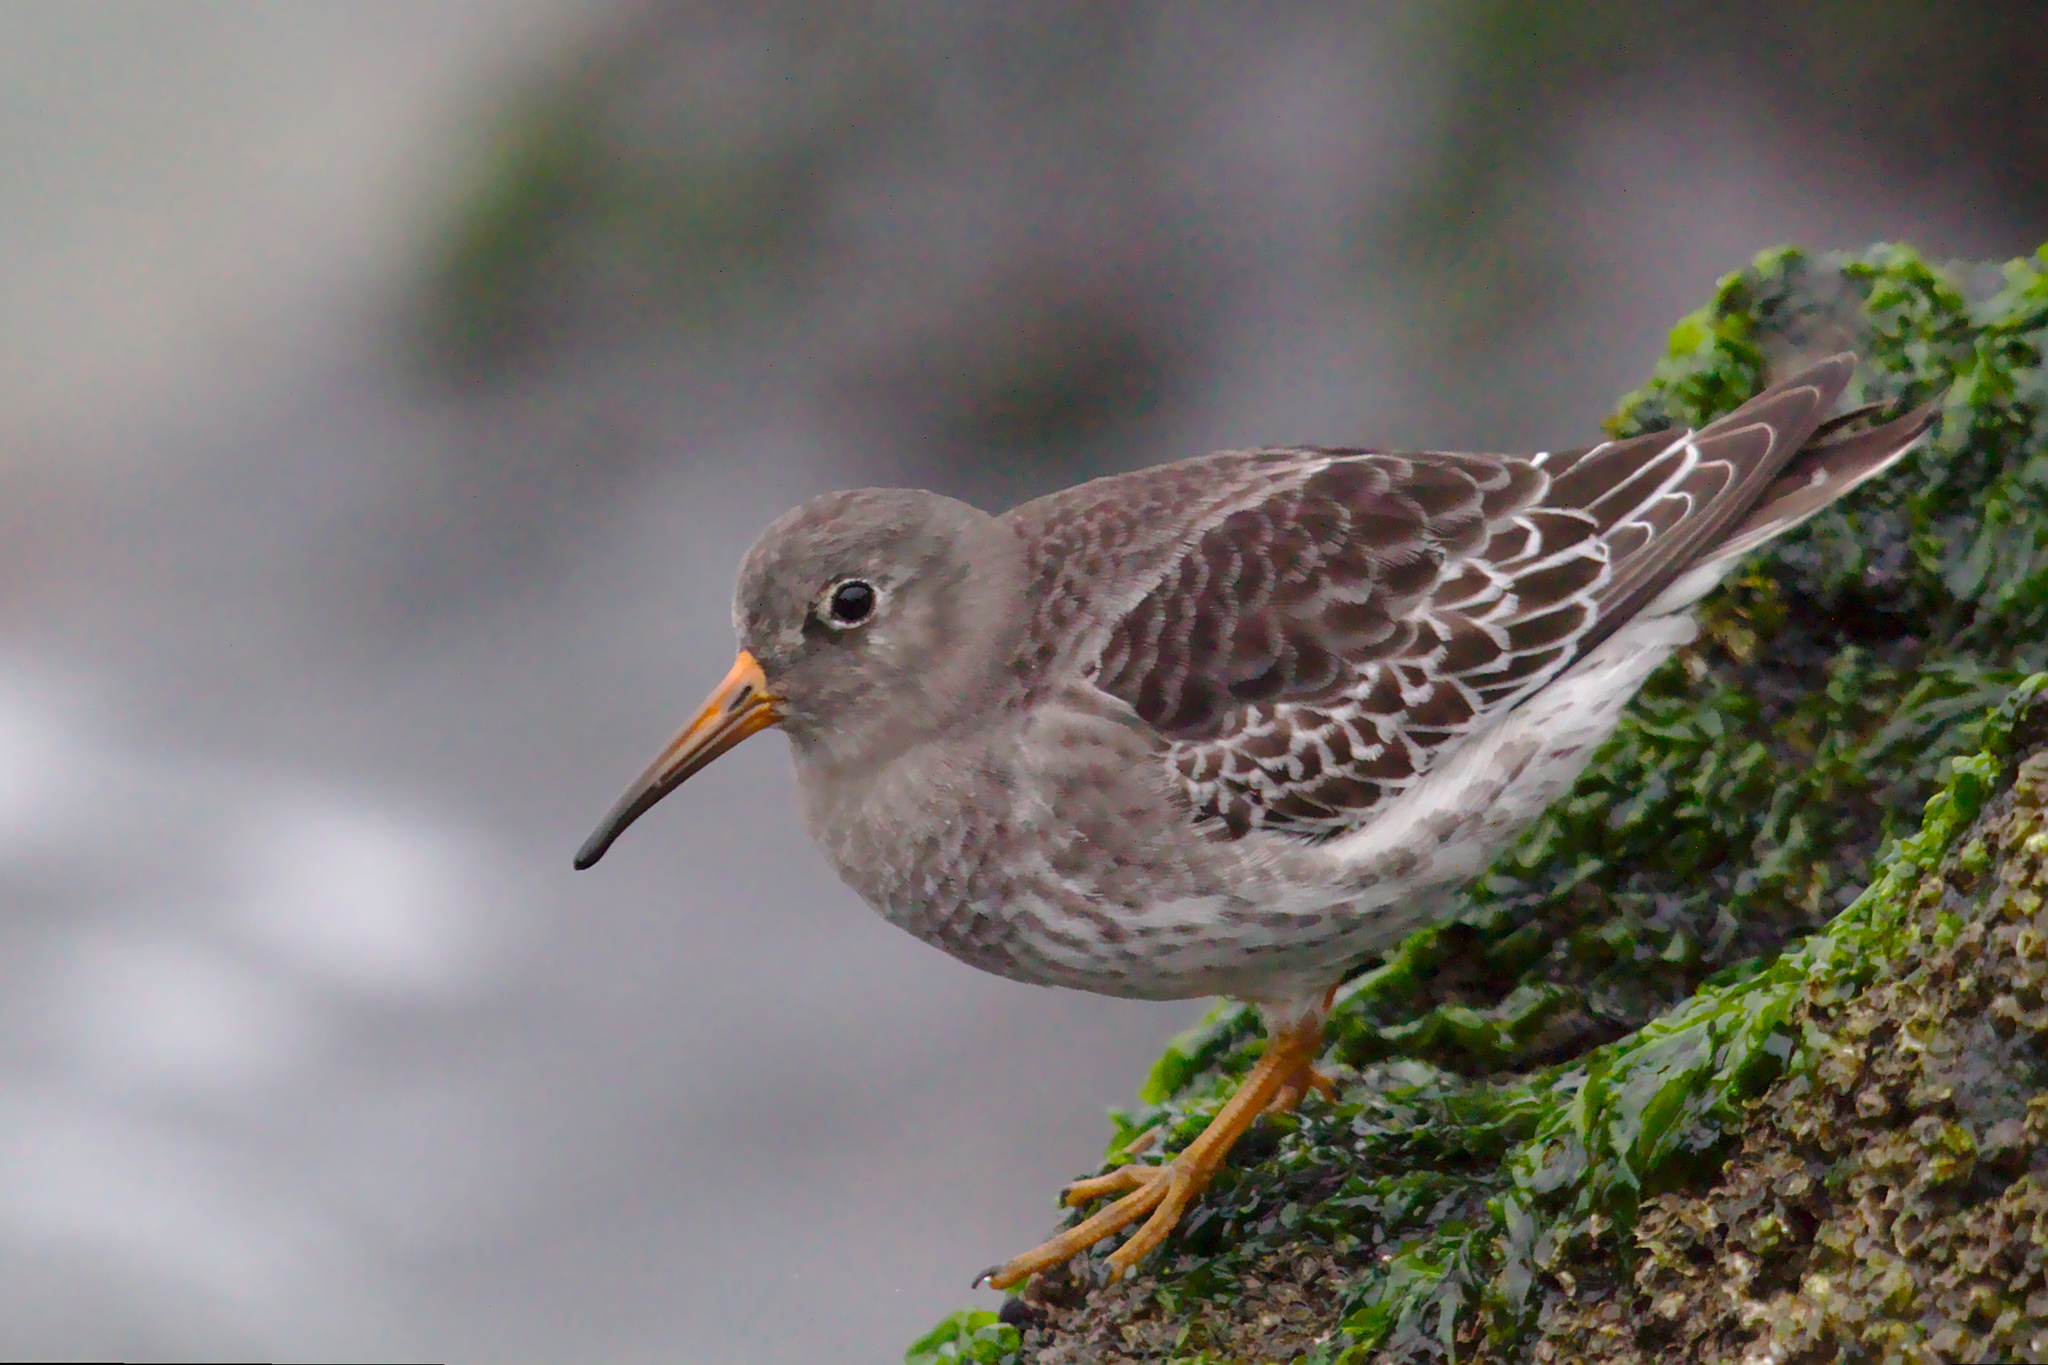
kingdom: Animalia
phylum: Chordata
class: Aves
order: Charadriiformes
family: Scolopacidae
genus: Calidris
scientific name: Calidris maritima
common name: Purple sandpiper
